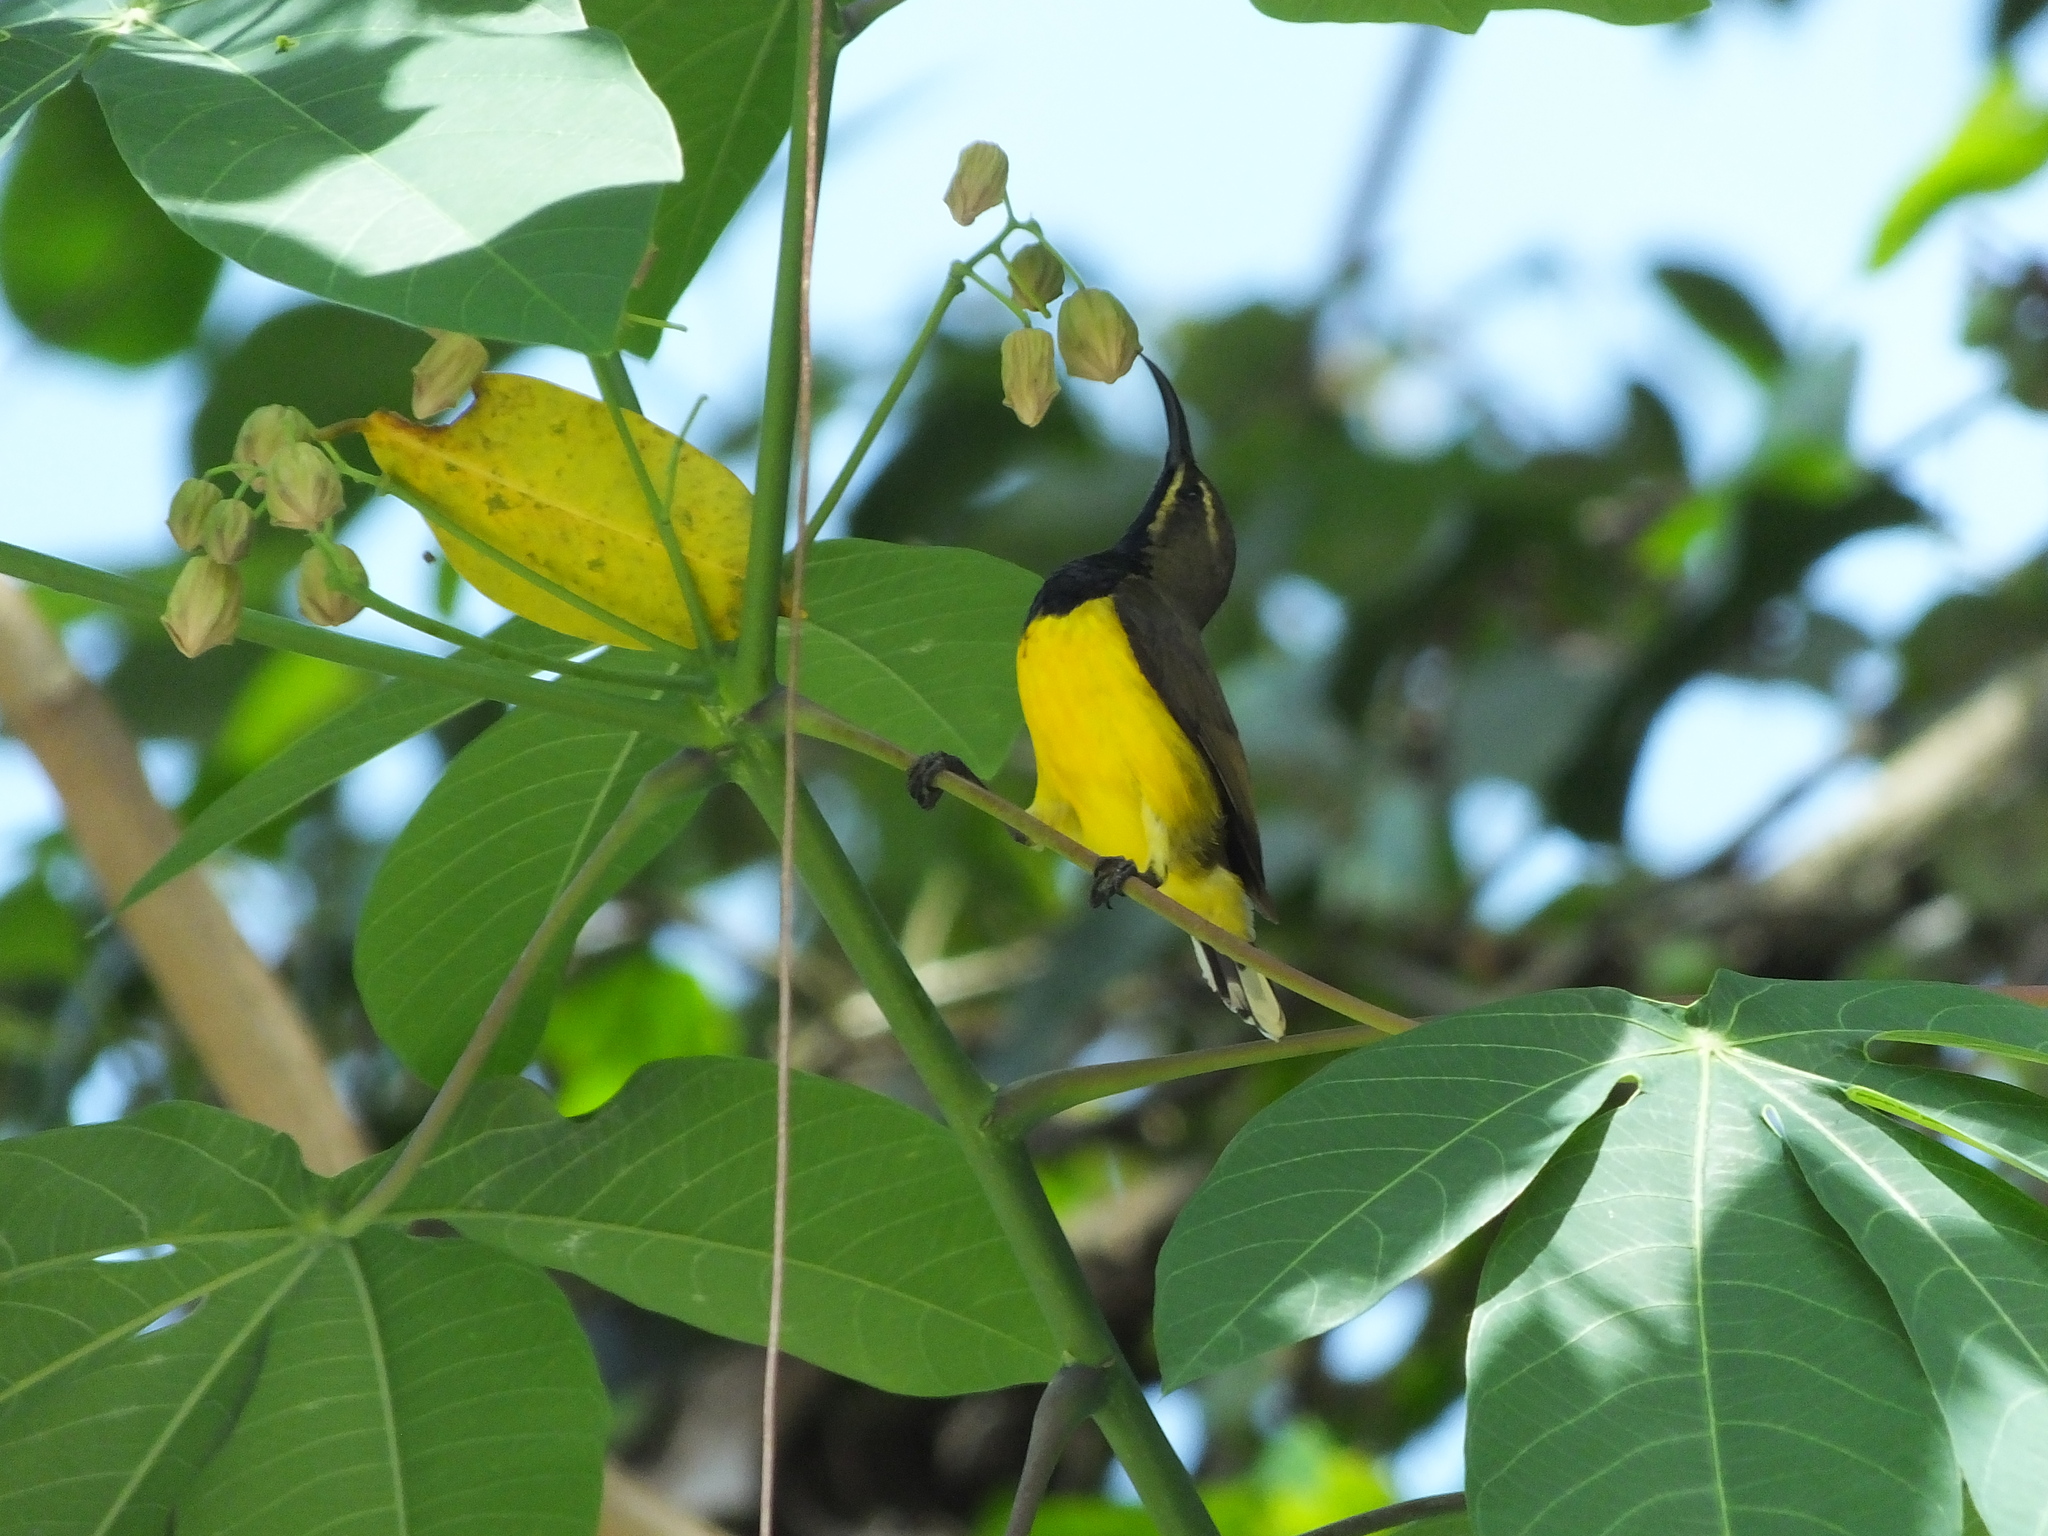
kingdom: Animalia
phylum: Chordata
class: Aves
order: Passeriformes
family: Nectariniidae
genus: Cinnyris
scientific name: Cinnyris
